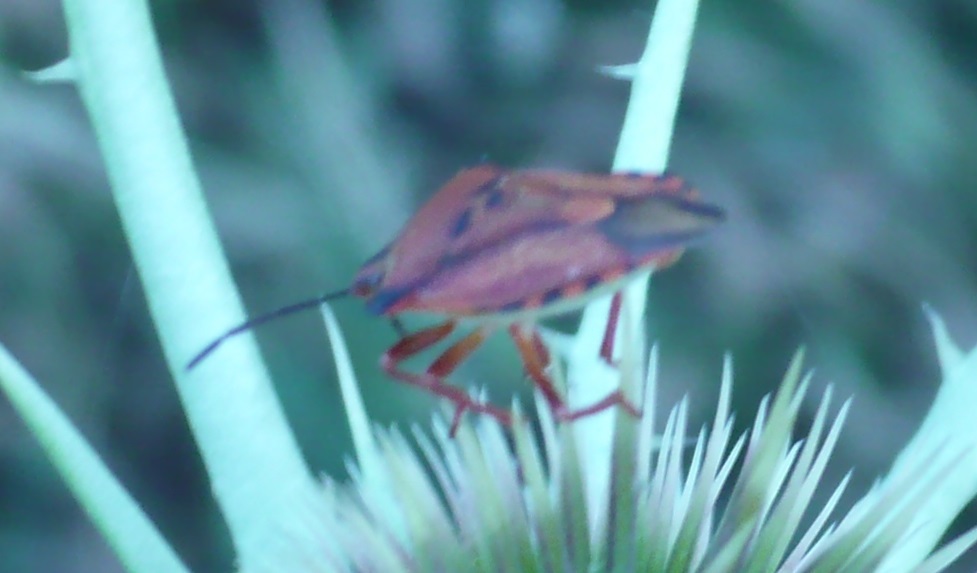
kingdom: Animalia
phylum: Arthropoda
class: Insecta
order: Hemiptera
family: Pentatomidae
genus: Carpocoris
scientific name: Carpocoris mediterraneus
